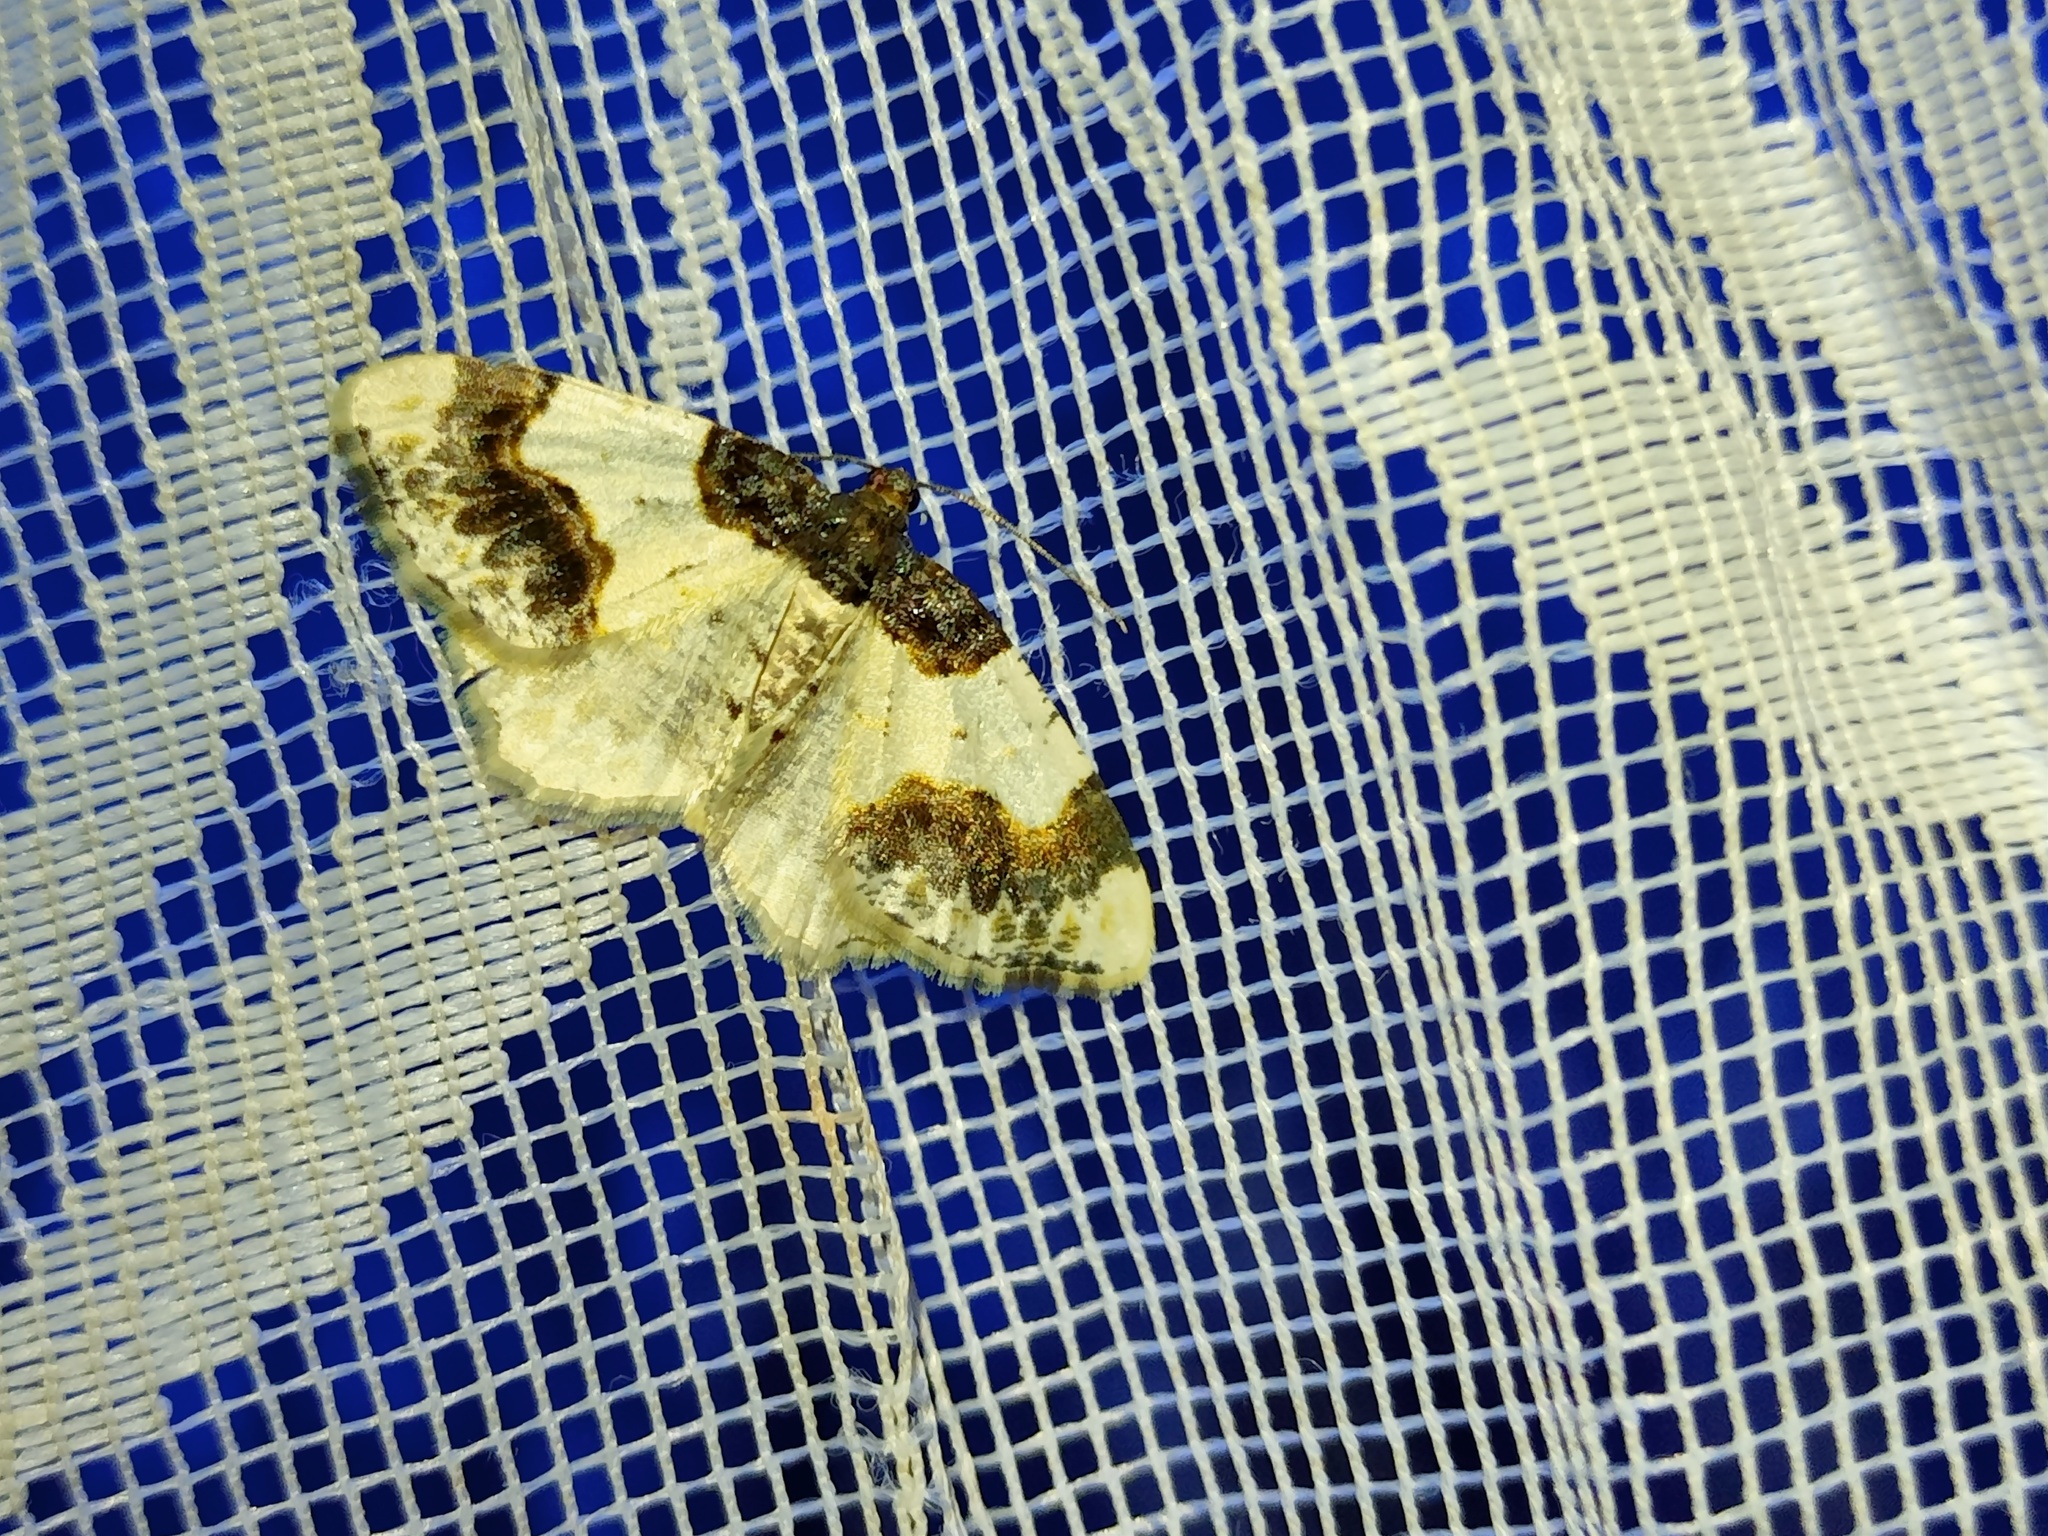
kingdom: Animalia
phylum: Arthropoda
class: Insecta
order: Lepidoptera
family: Geometridae
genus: Ligdia
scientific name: Ligdia adustata
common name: Scorched carpet
